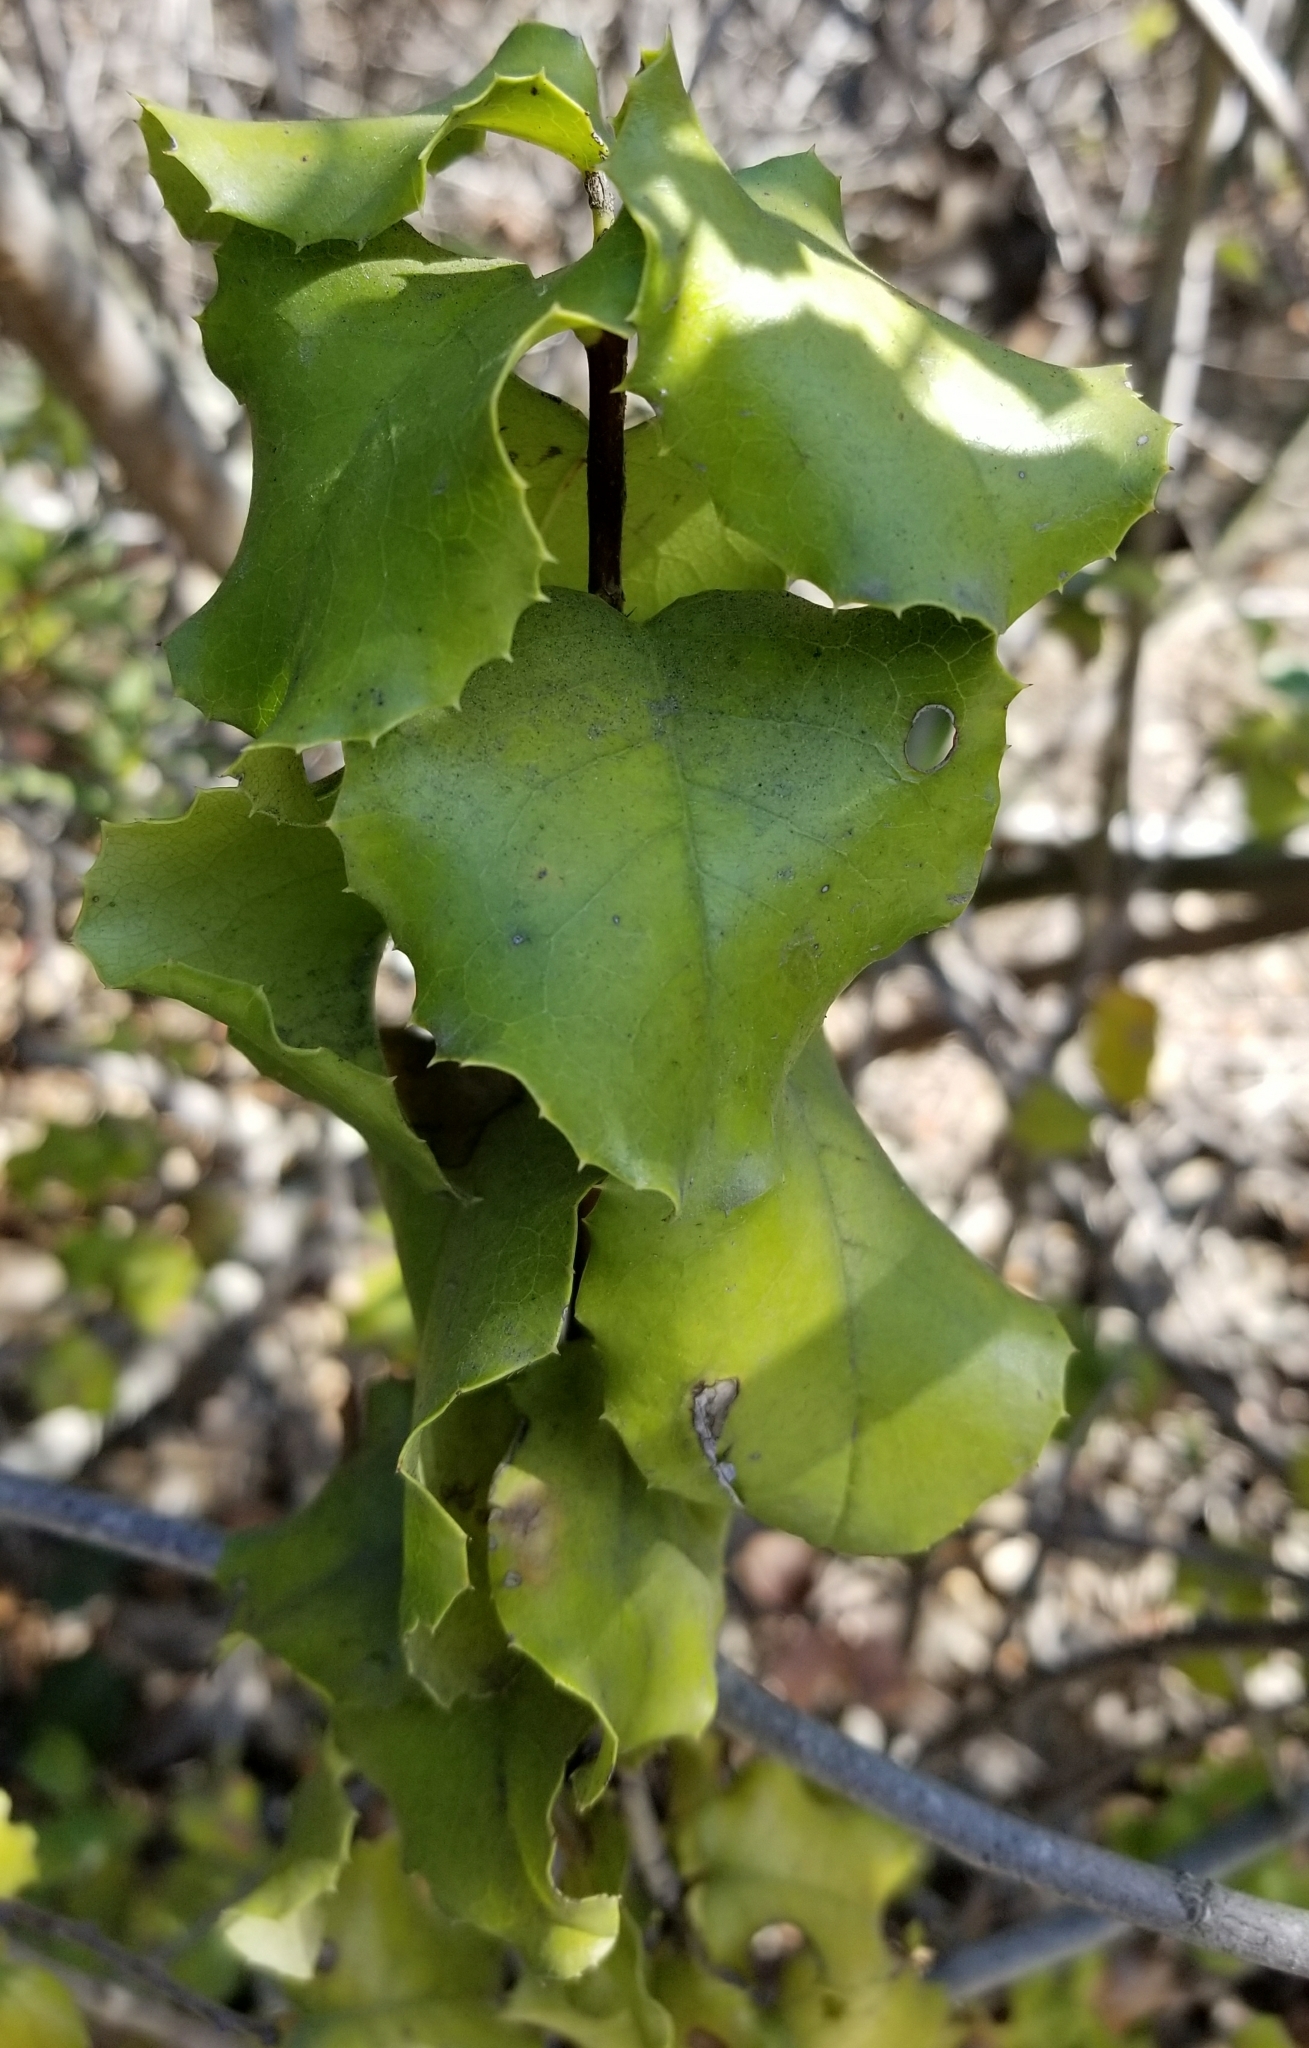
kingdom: Plantae
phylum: Tracheophyta
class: Magnoliopsida
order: Rosales
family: Rosaceae
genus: Prunus
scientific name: Prunus ilicifolia
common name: Hollyleaf cherry
